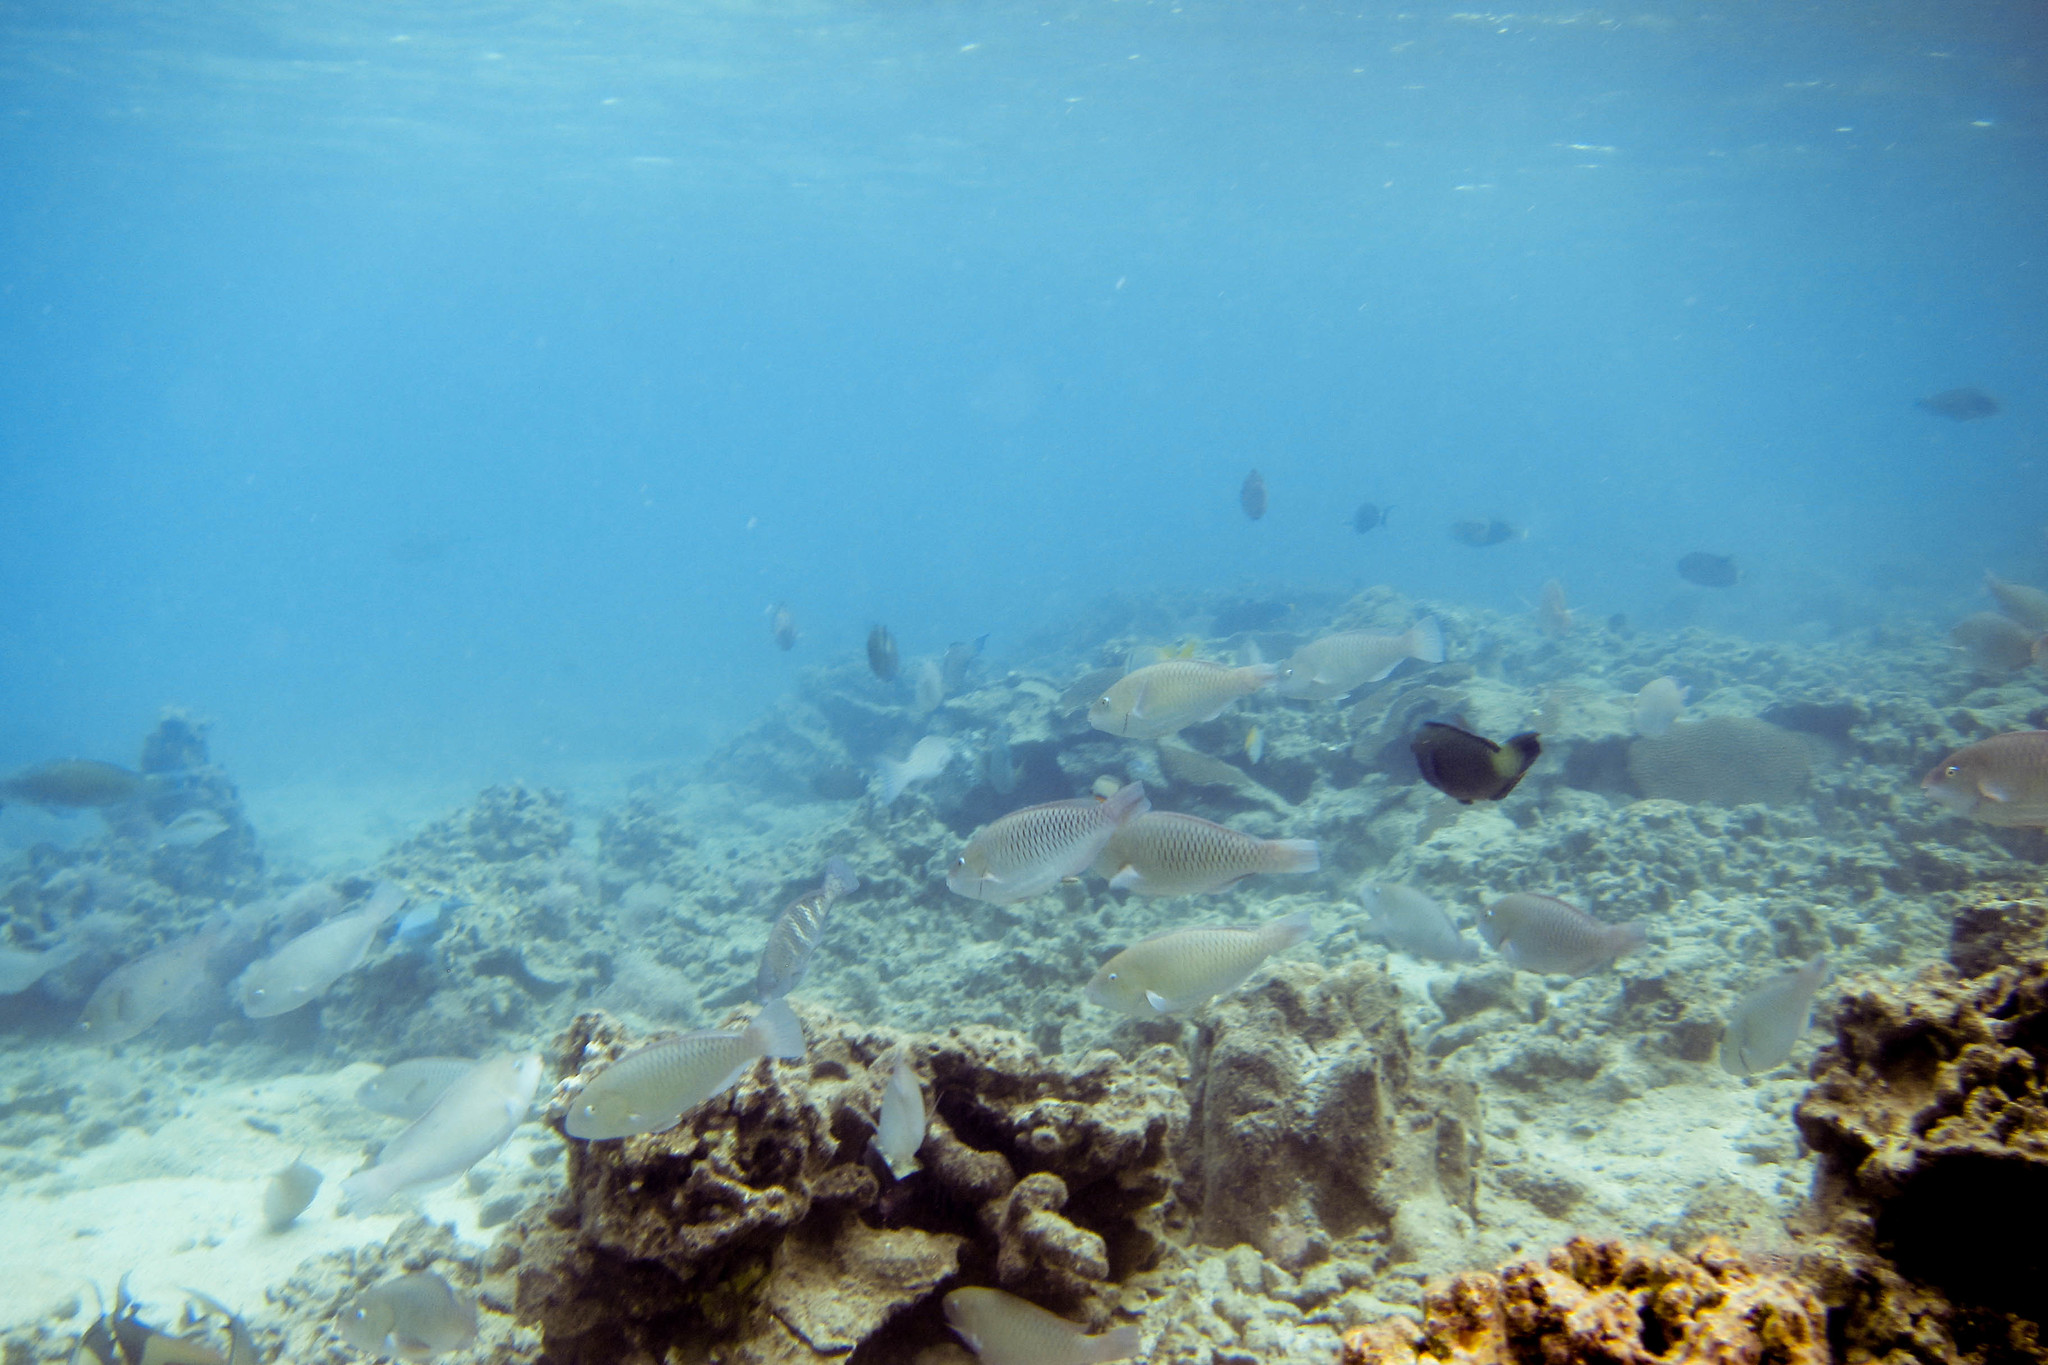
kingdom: Animalia
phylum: Chordata
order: Perciformes
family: Scaridae
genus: Scarus
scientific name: Scarus rivulatus
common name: Surf parrotfish
